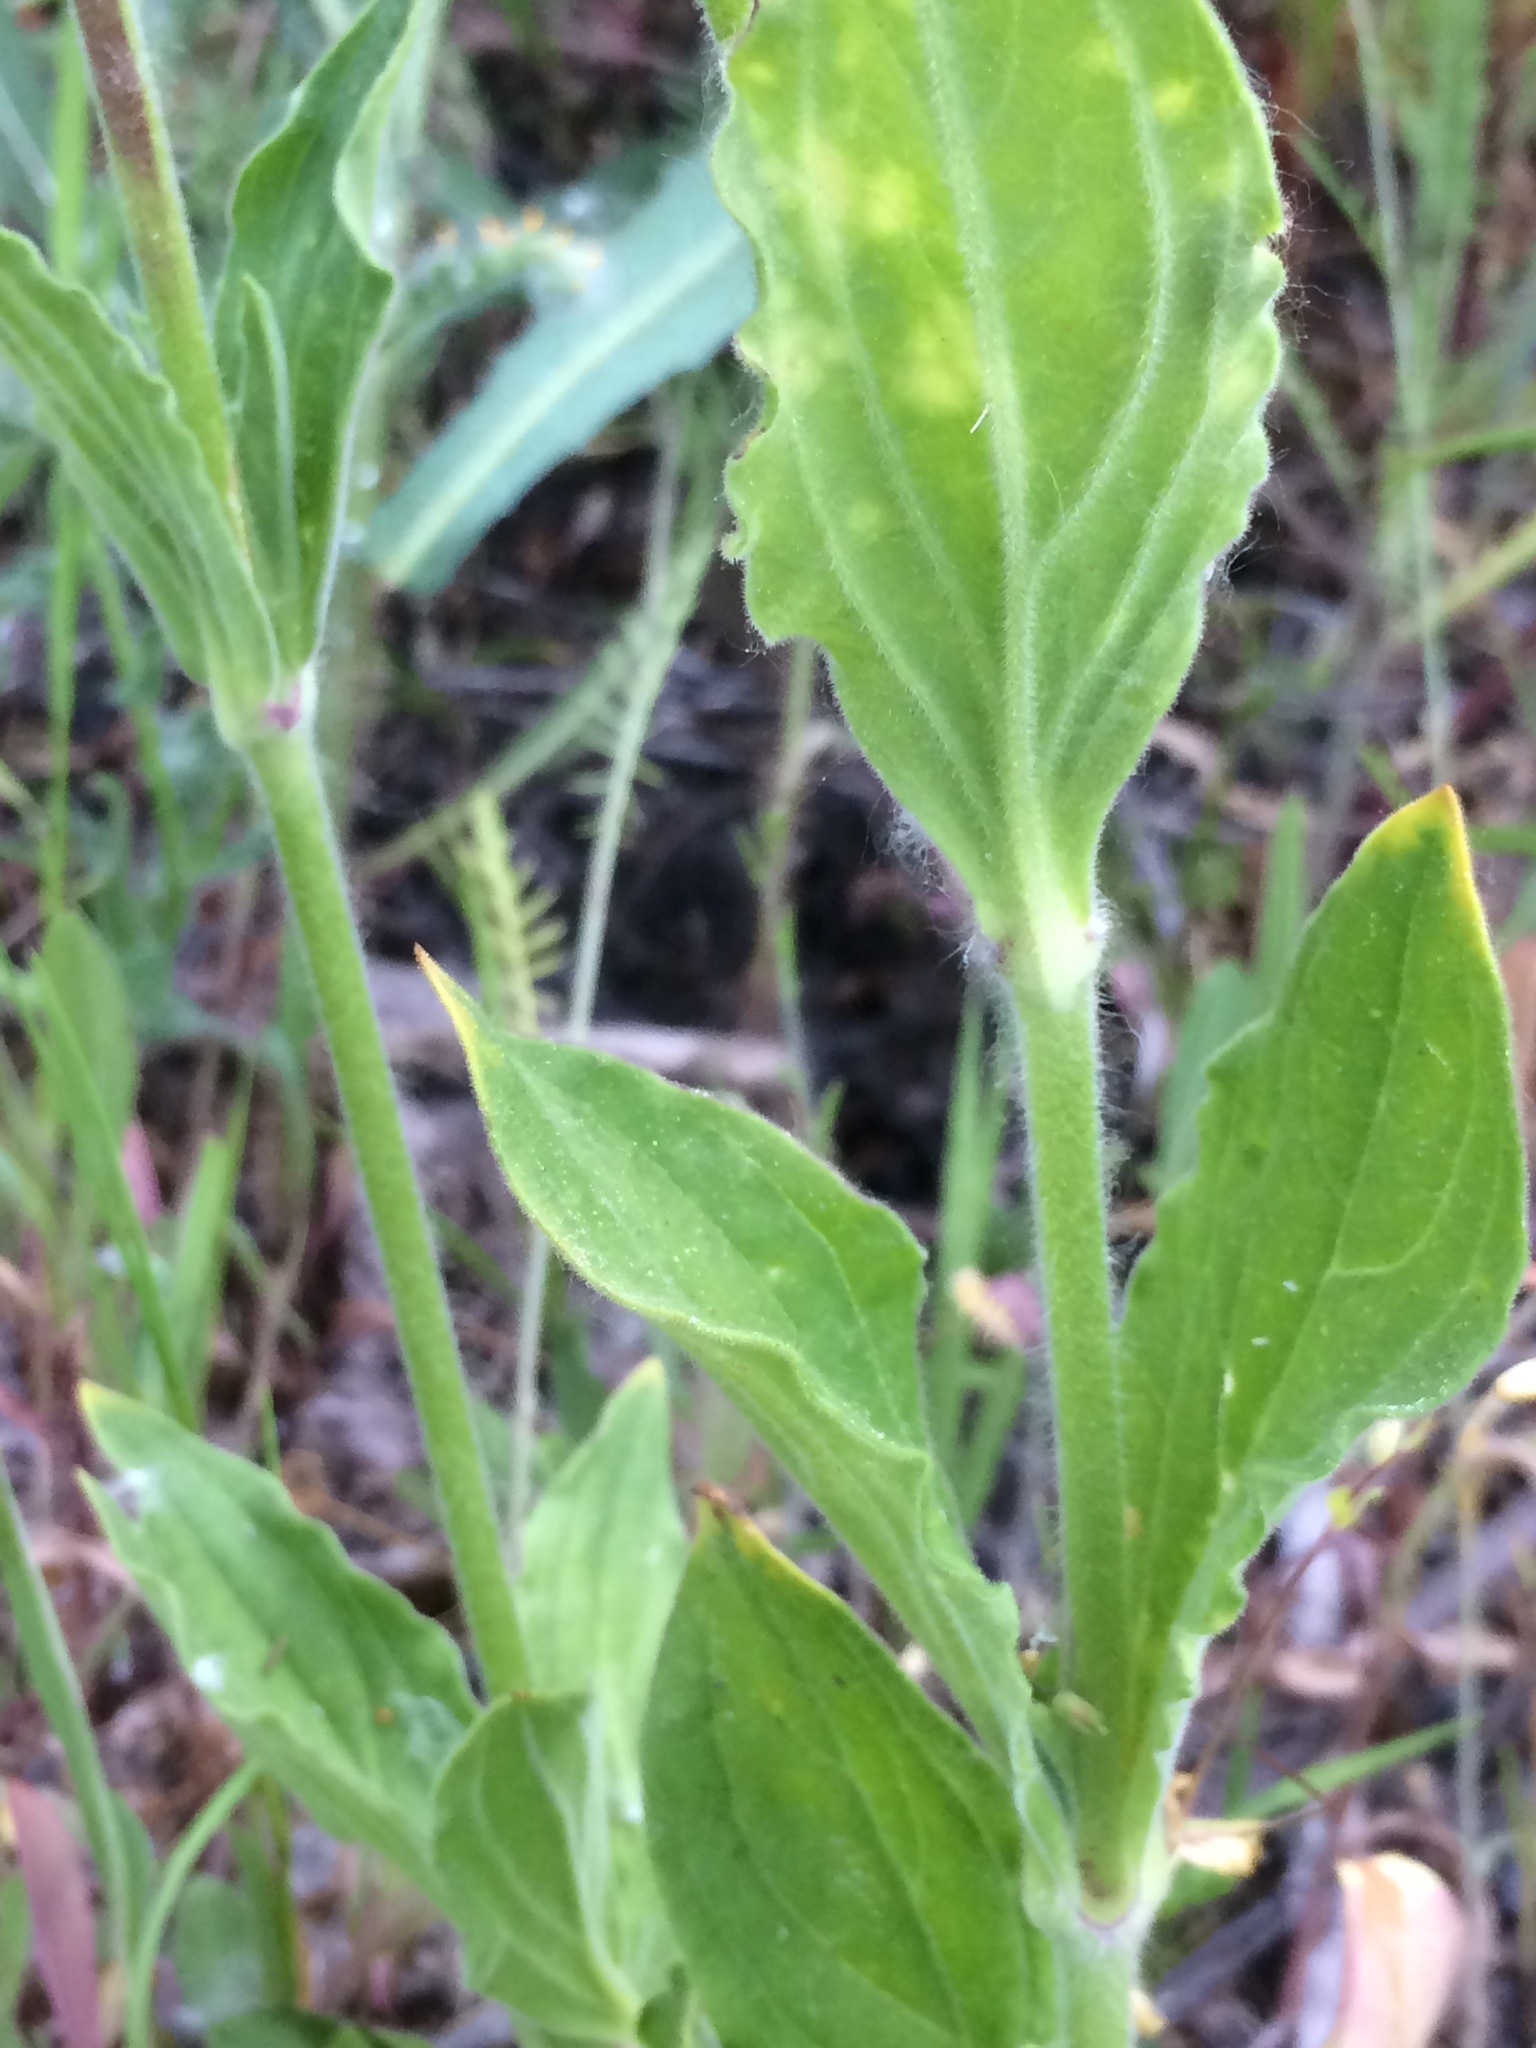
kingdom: Plantae
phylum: Tracheophyta
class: Magnoliopsida
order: Caryophyllales
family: Caryophyllaceae
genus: Silene
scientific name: Silene latifolia
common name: White campion
